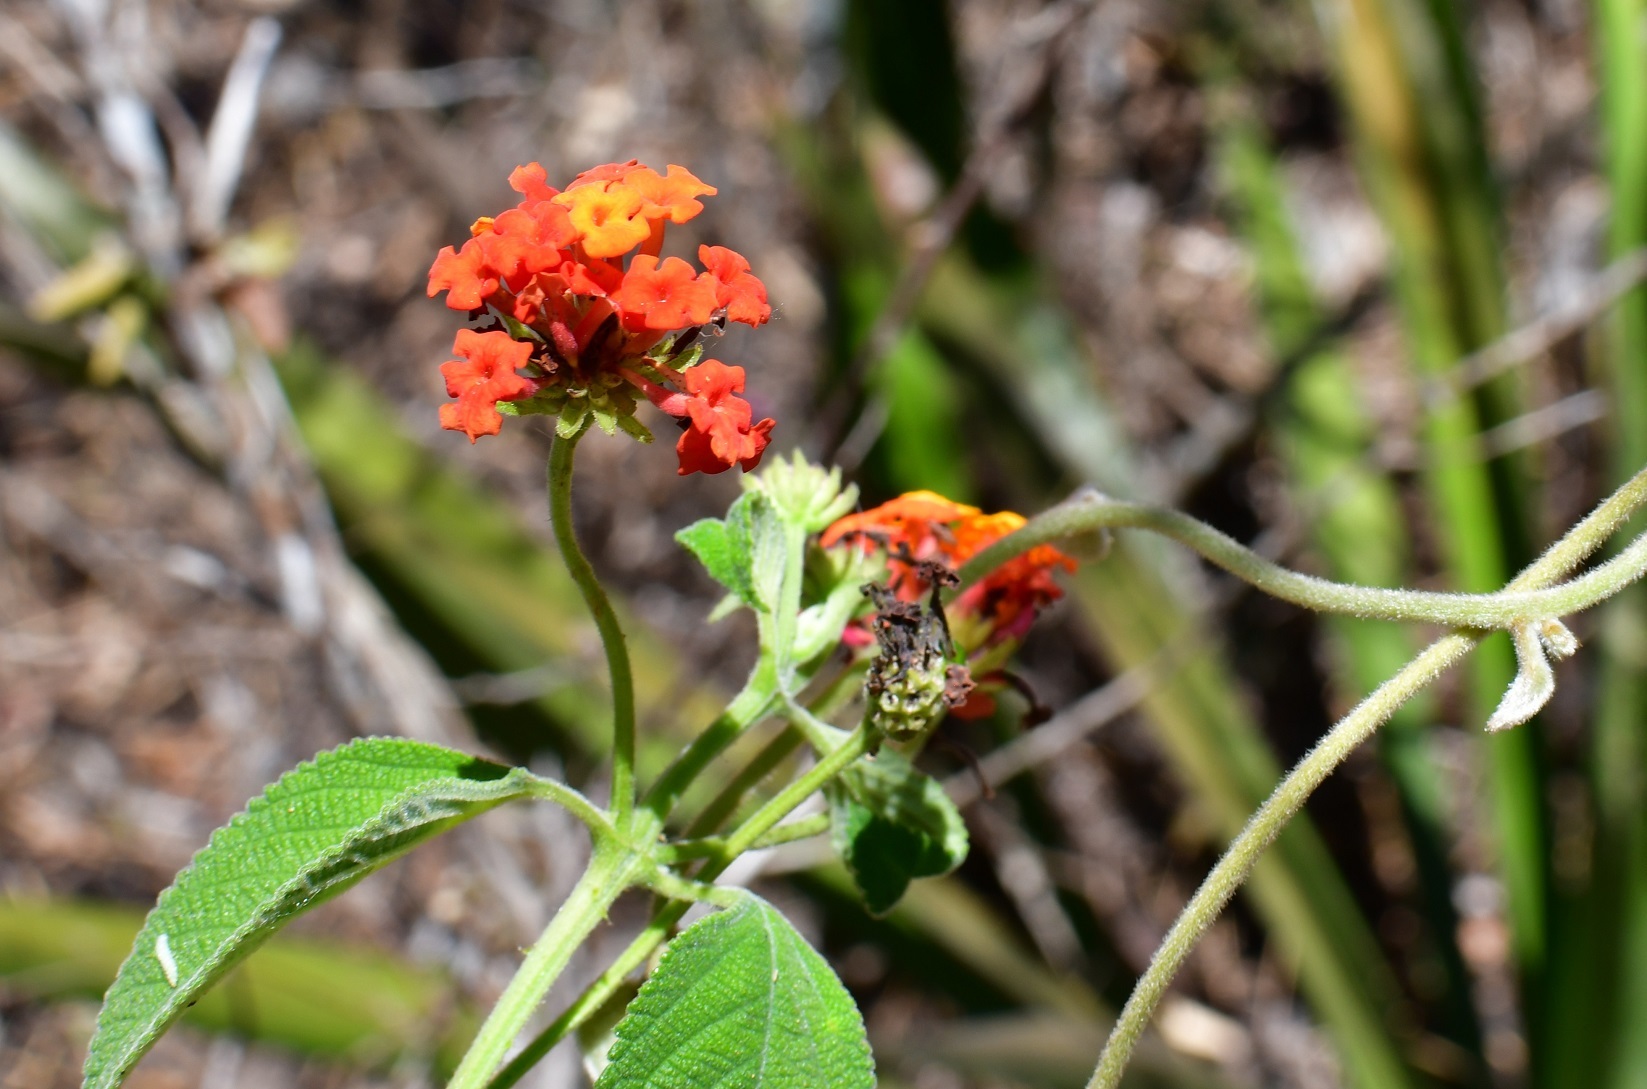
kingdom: Plantae
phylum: Tracheophyta
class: Magnoliopsida
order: Lamiales
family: Verbenaceae
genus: Lantana
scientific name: Lantana horrida
